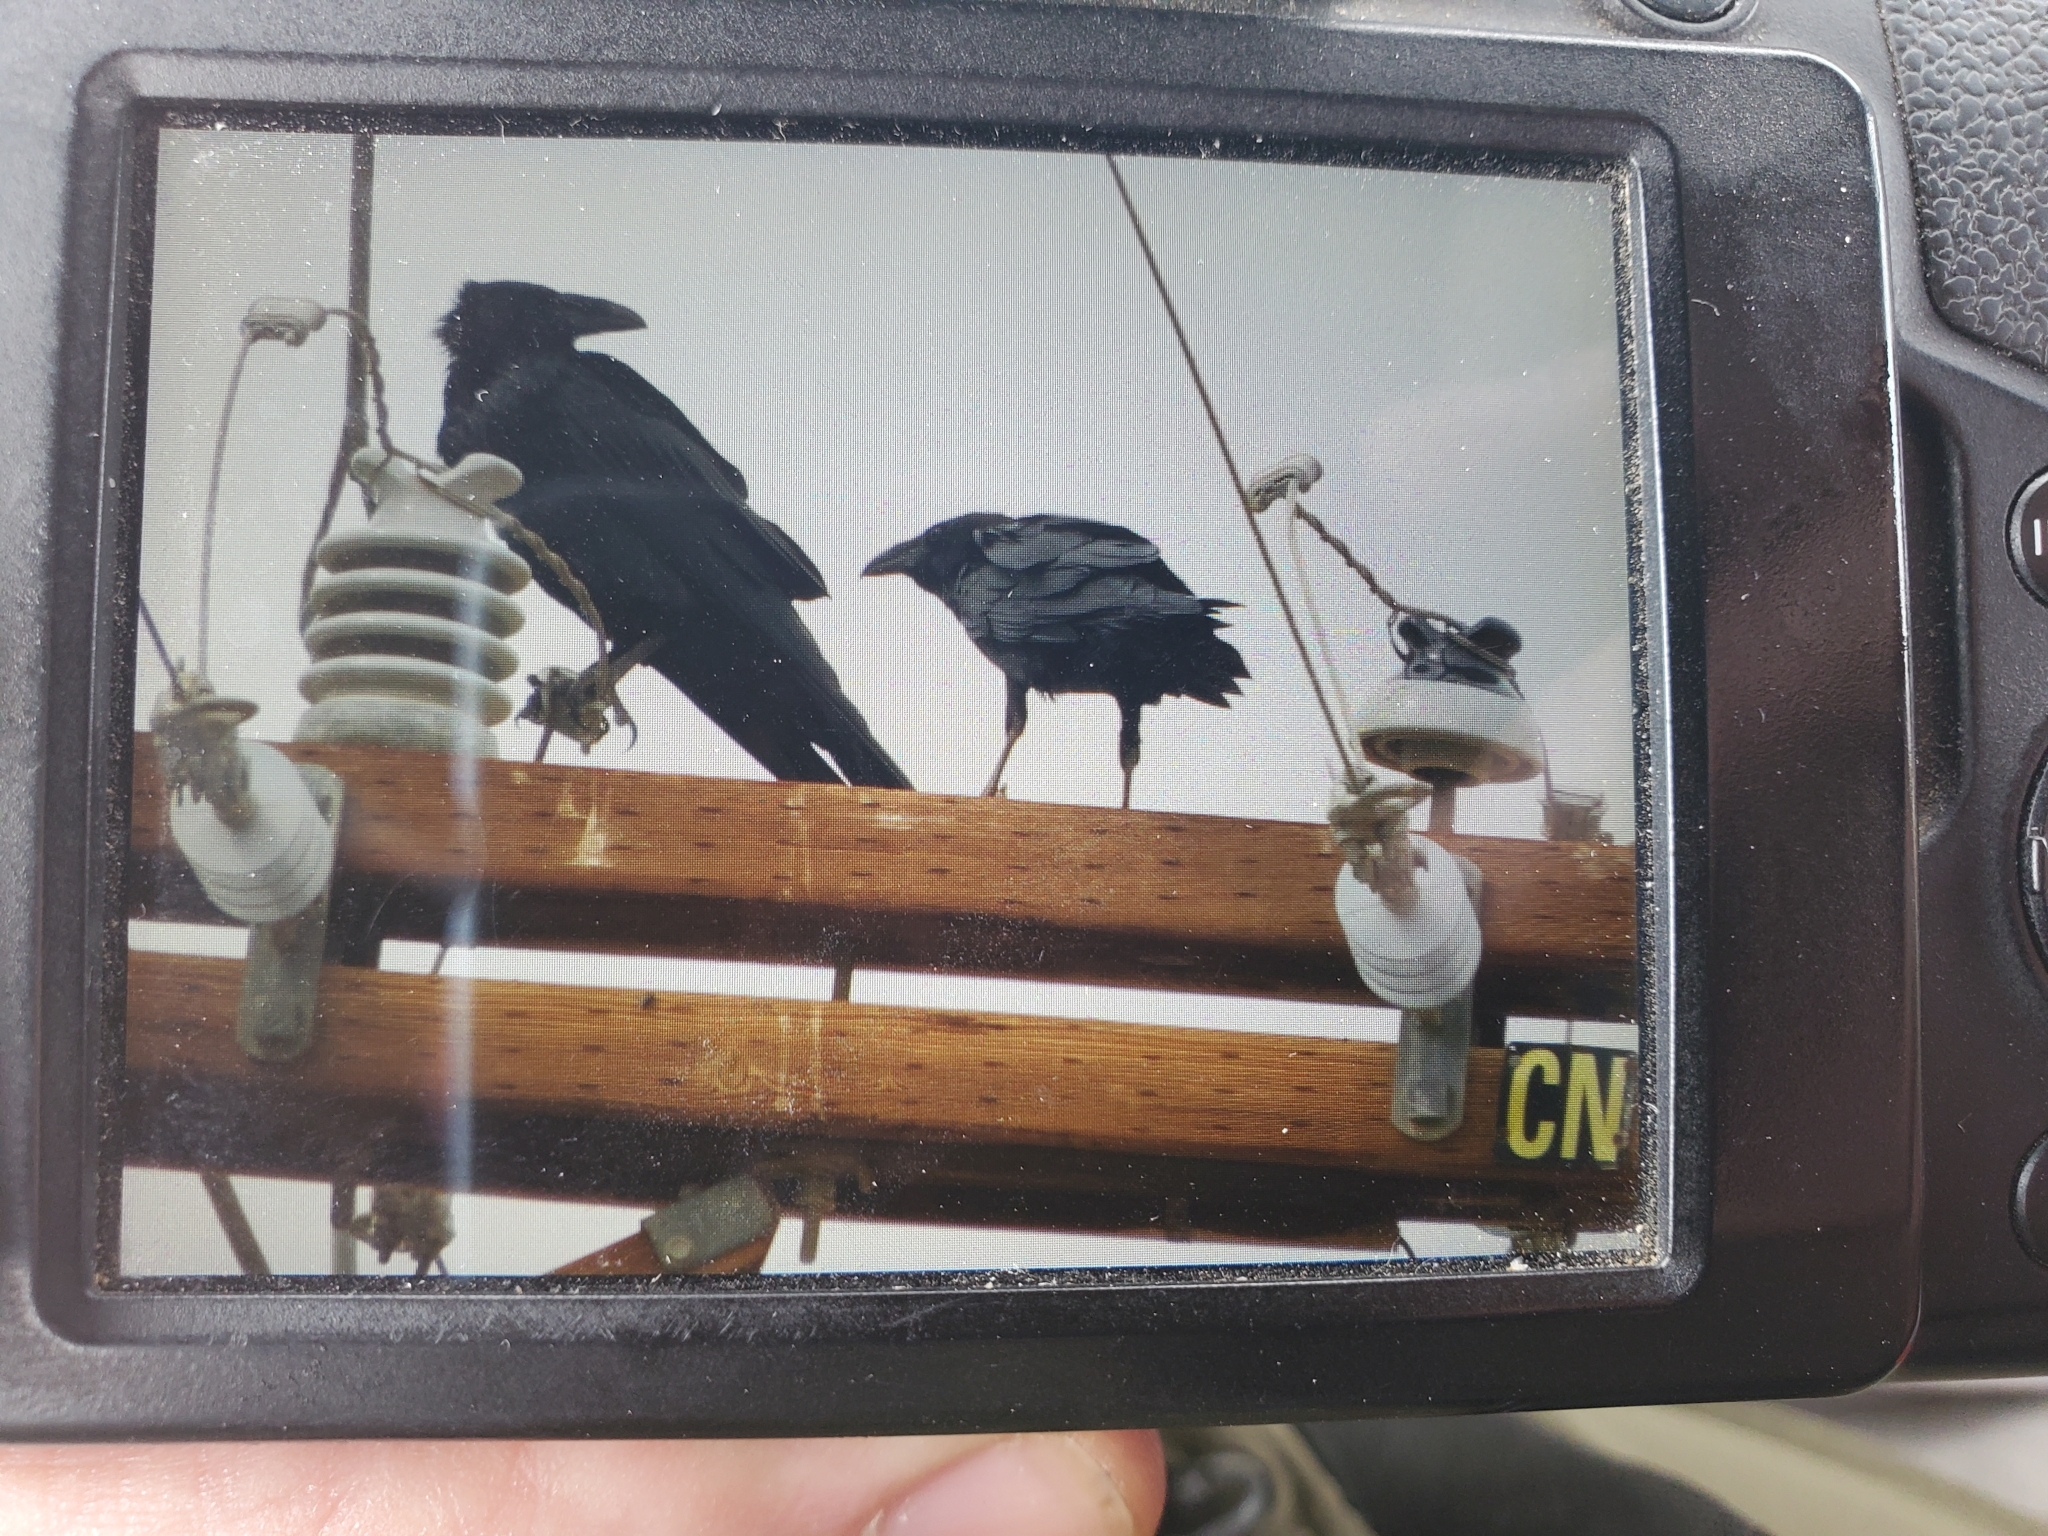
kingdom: Animalia
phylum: Chordata
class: Aves
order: Passeriformes
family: Corvidae
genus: Corvus
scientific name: Corvus corax
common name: Common raven
